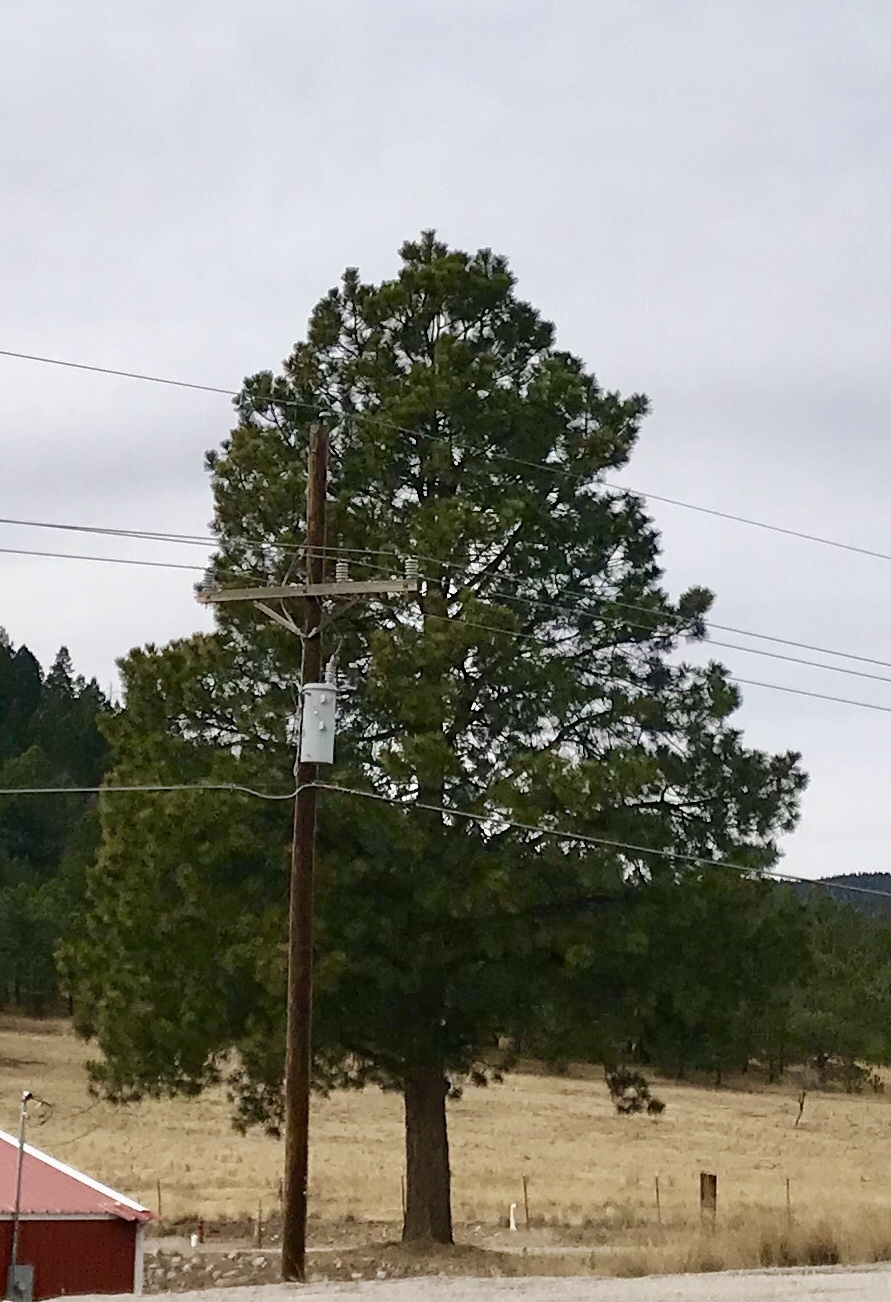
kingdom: Plantae
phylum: Tracheophyta
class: Pinopsida
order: Pinales
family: Pinaceae
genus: Pinus
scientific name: Pinus ponderosa
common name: Western yellow-pine
